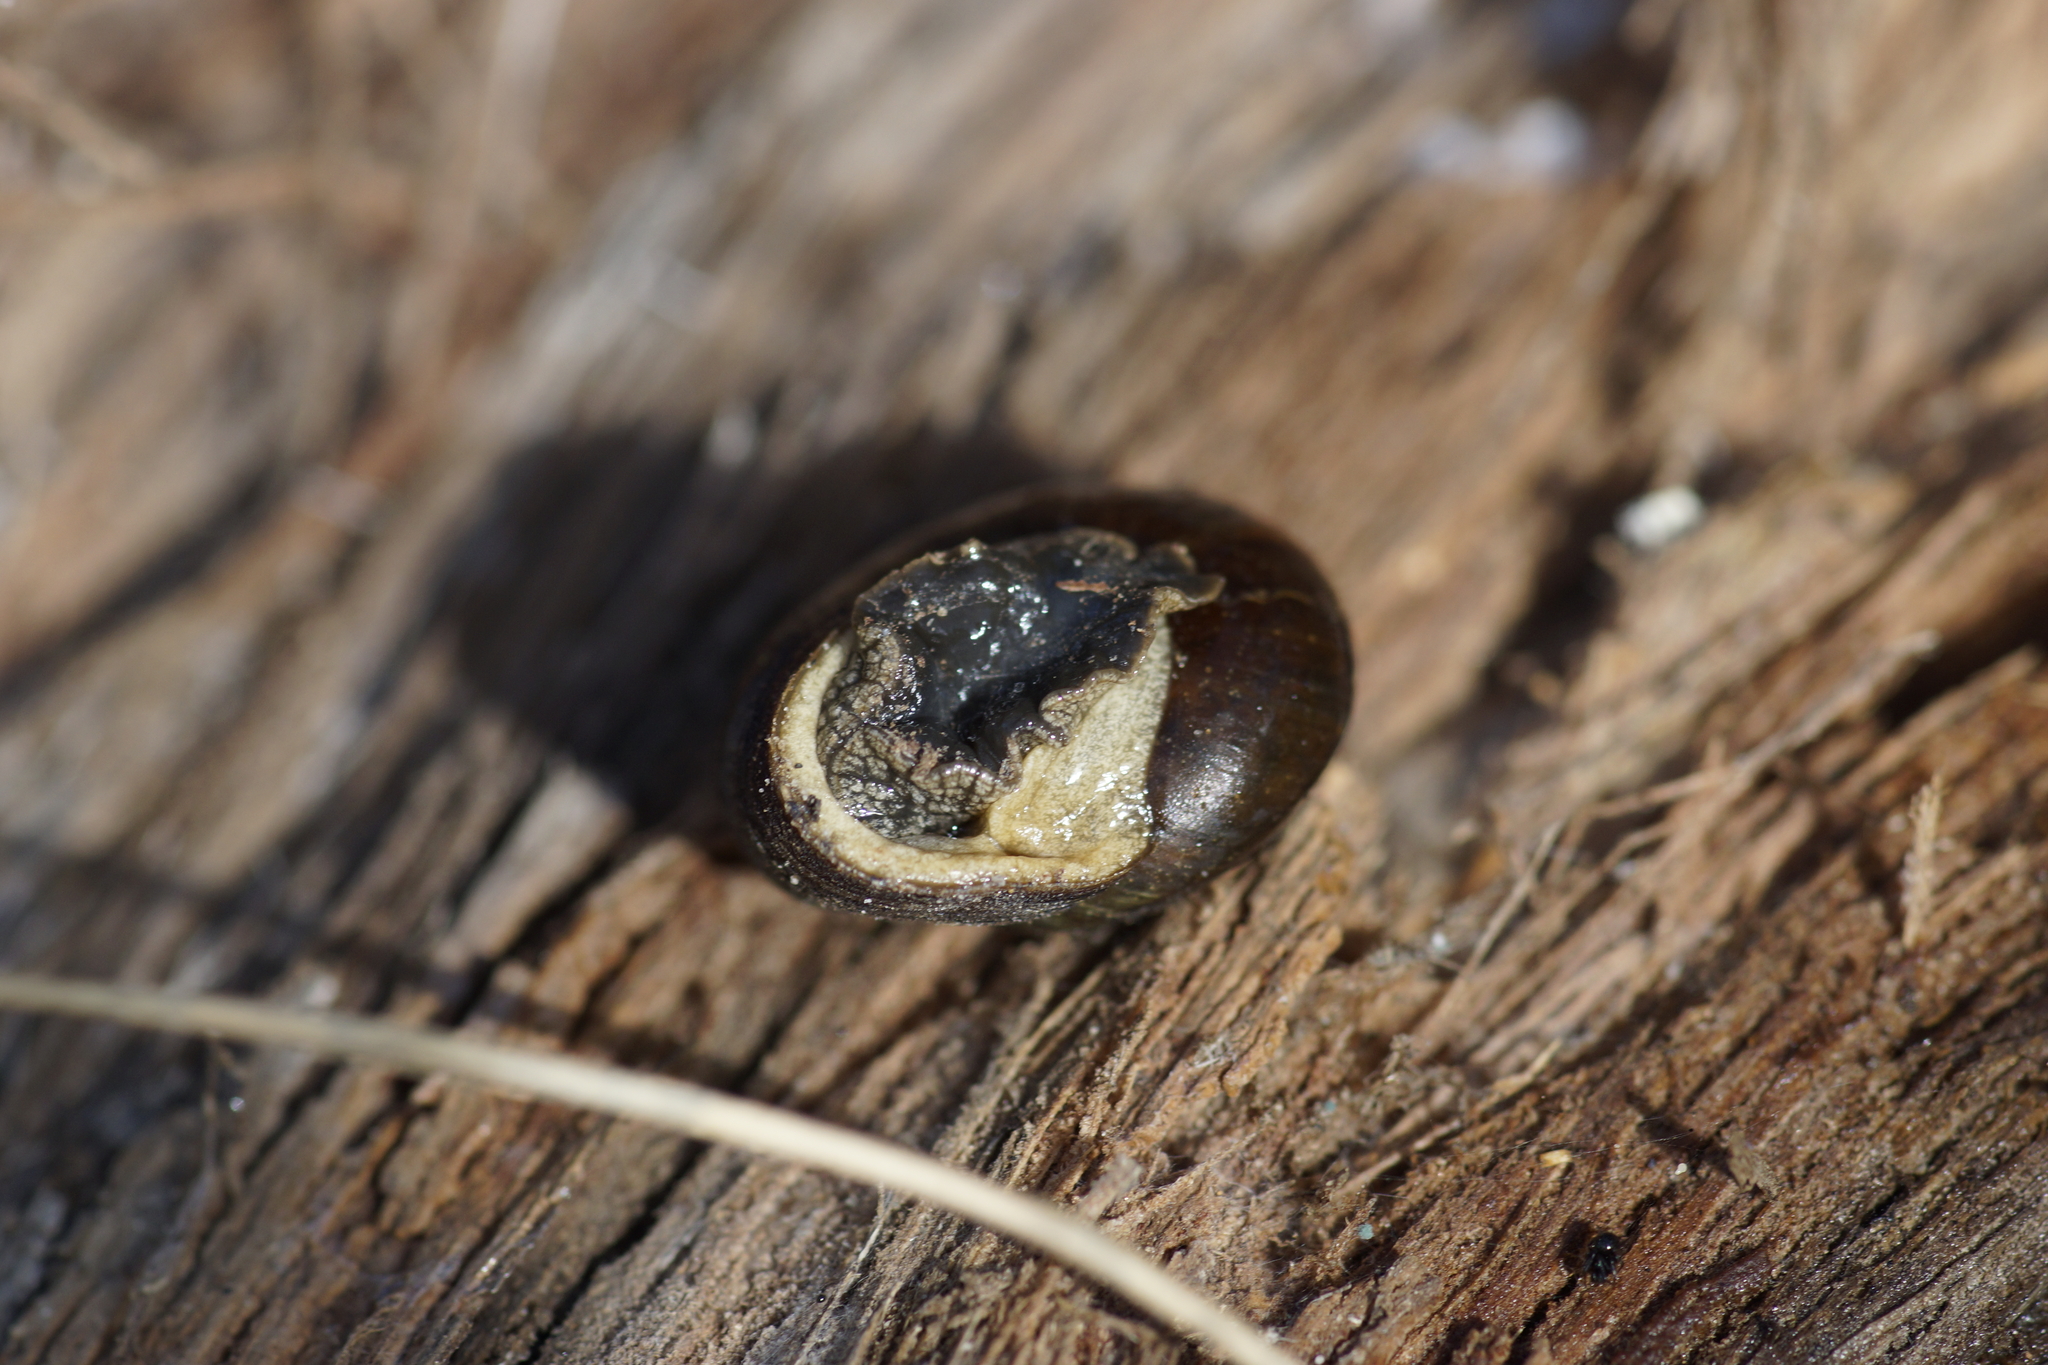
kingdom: Animalia
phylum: Mollusca
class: Gastropoda
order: Stylommatophora
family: Camaenidae
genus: Chloritobadistes
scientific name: Chloritobadistes victoriae
